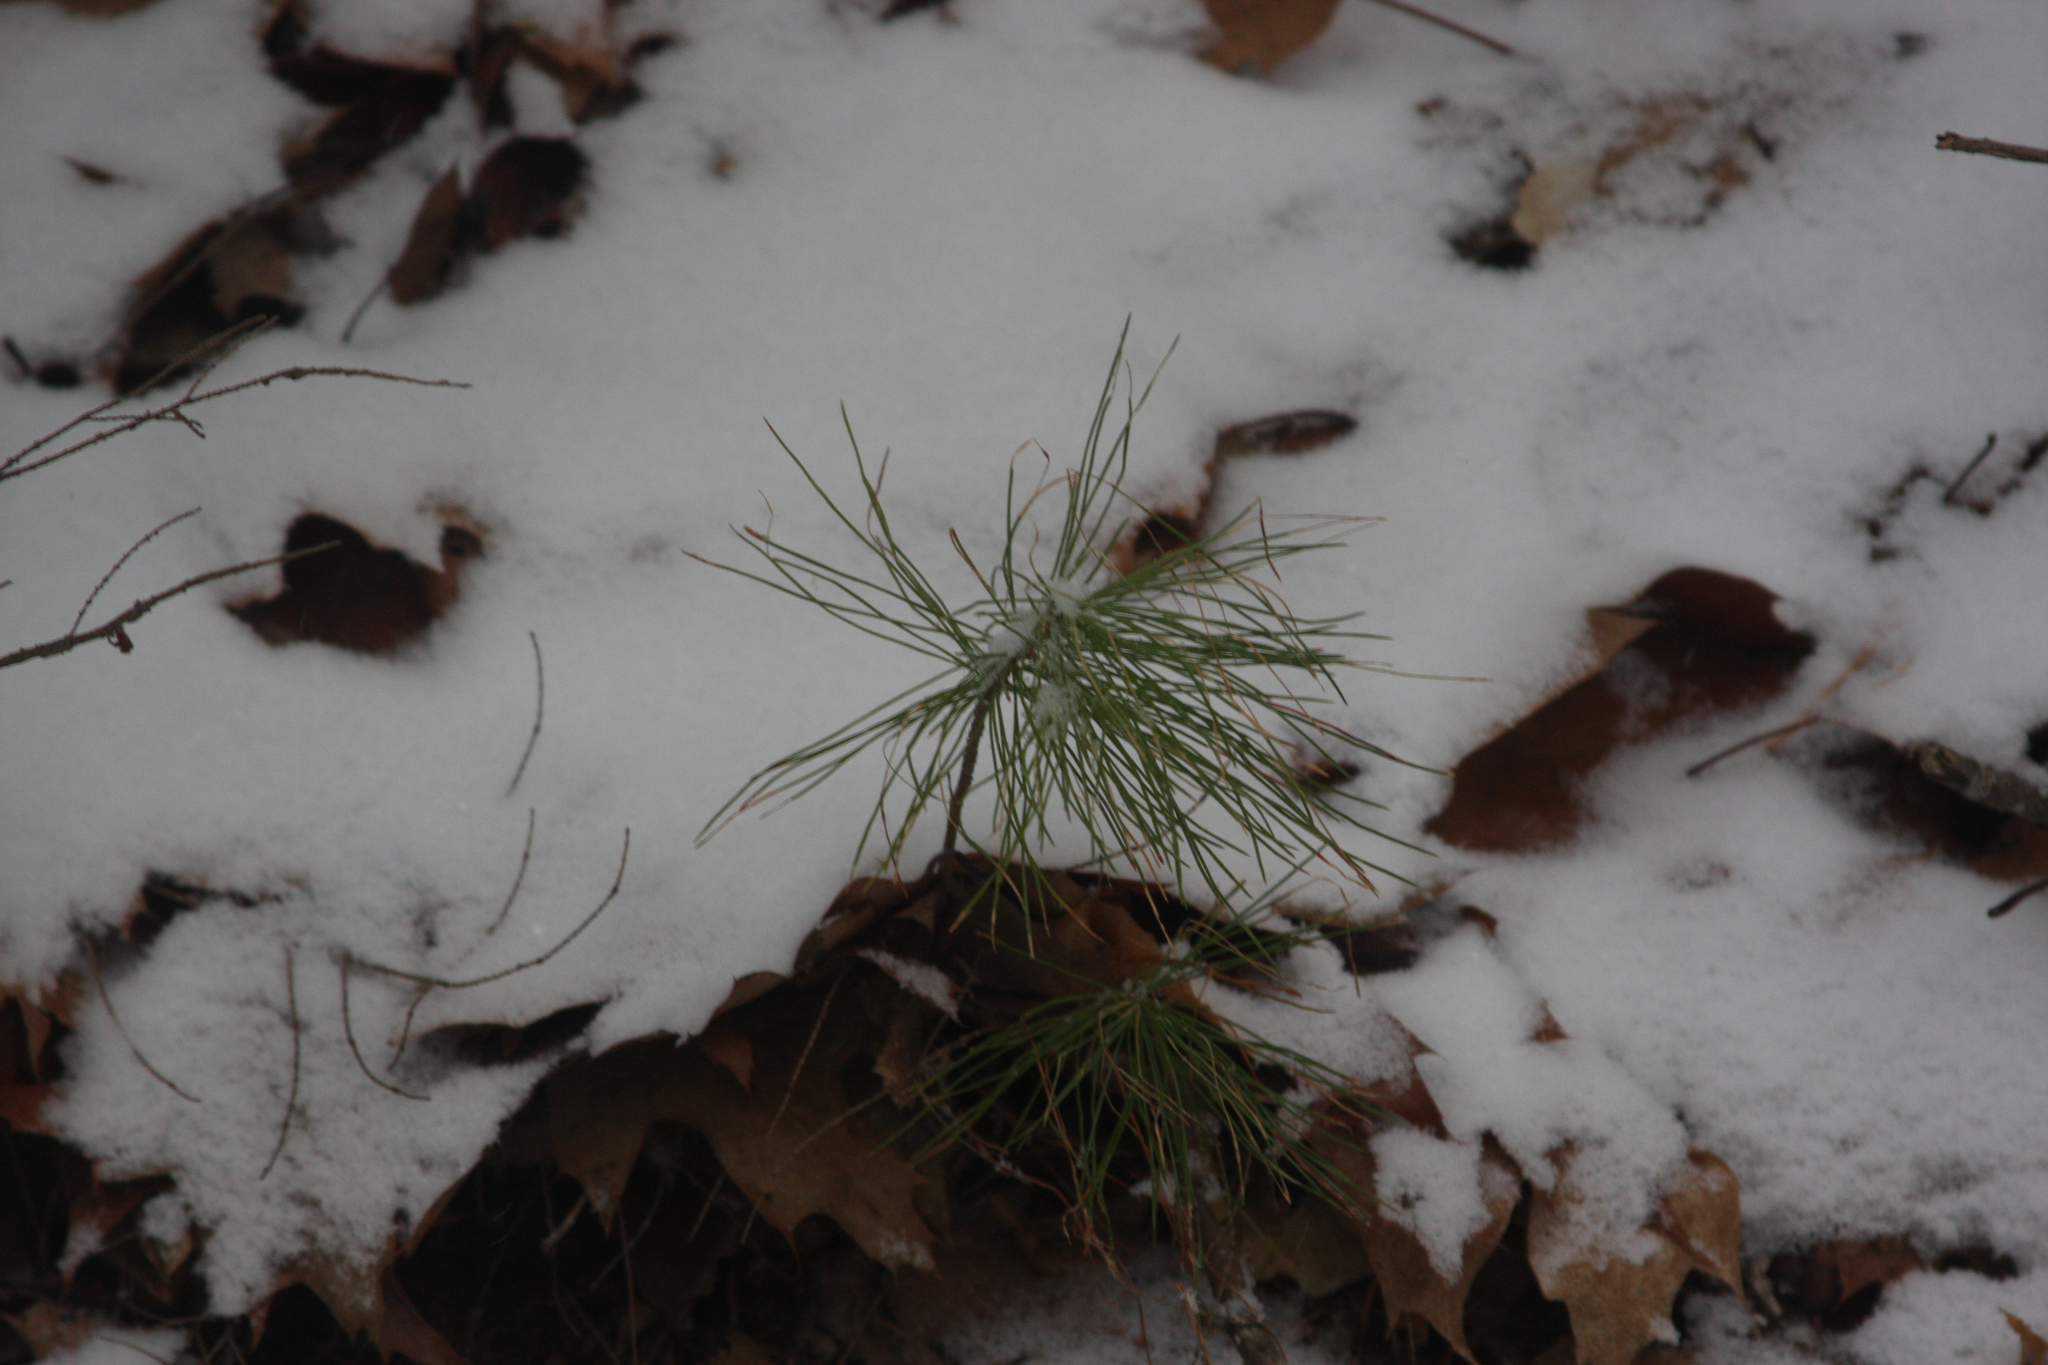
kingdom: Plantae
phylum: Tracheophyta
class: Pinopsida
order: Pinales
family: Pinaceae
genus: Pinus
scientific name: Pinus strobus
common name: Weymouth pine
